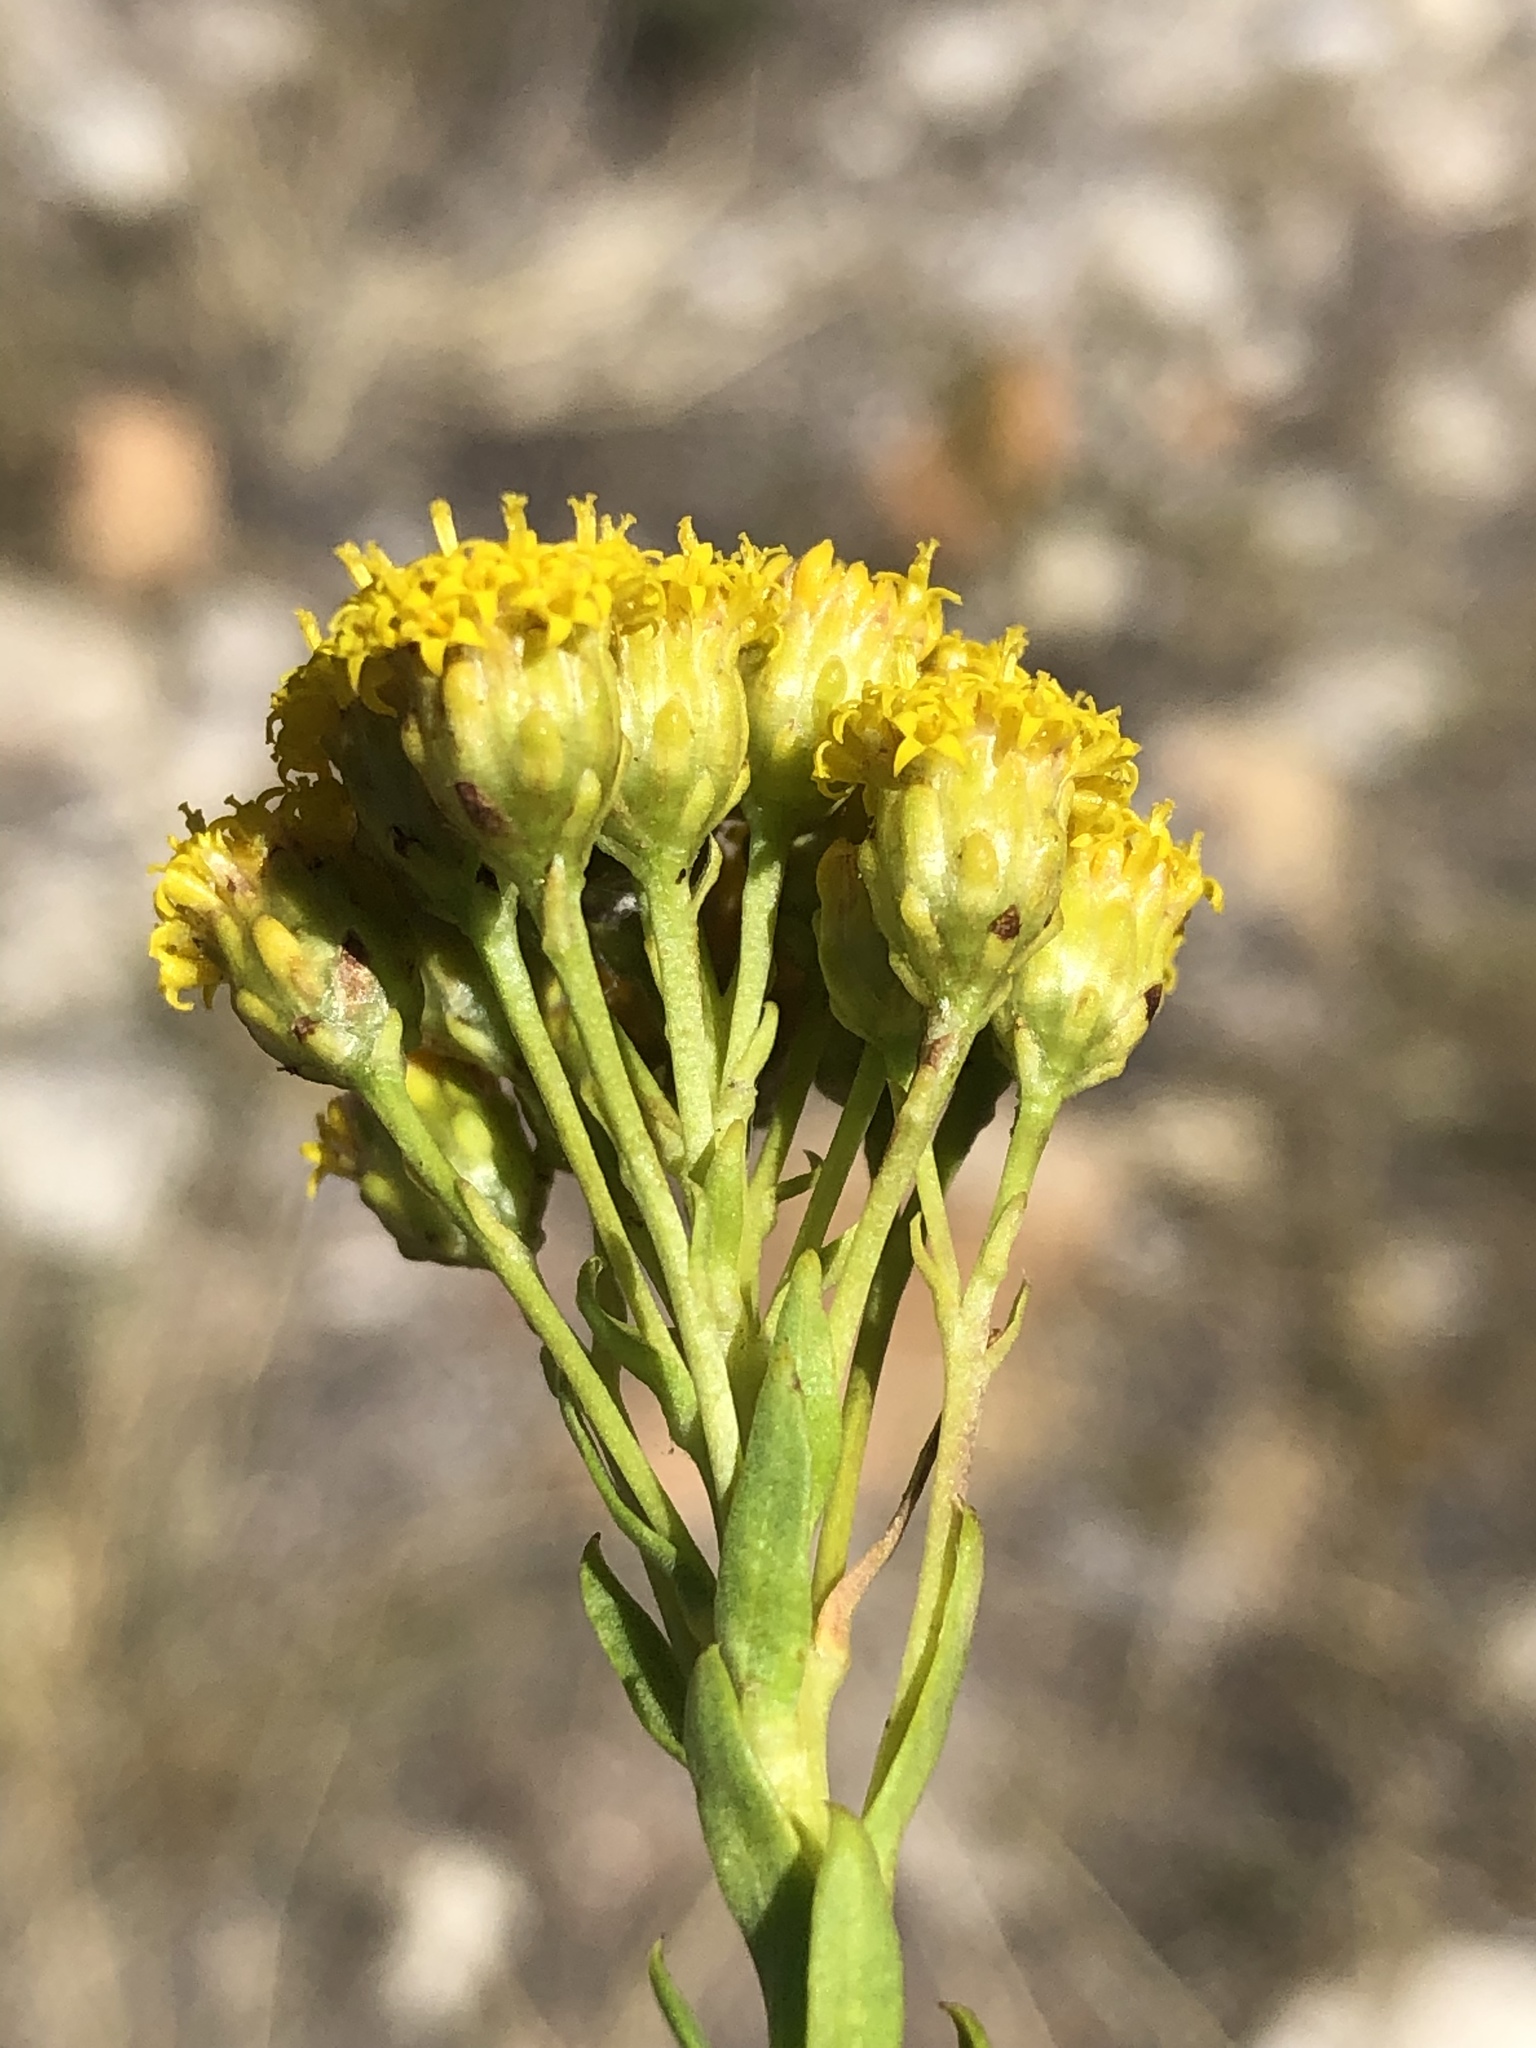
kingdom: Plantae
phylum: Tracheophyta
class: Magnoliopsida
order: Asterales
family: Asteraceae
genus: Athanasia
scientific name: Athanasia viridis
